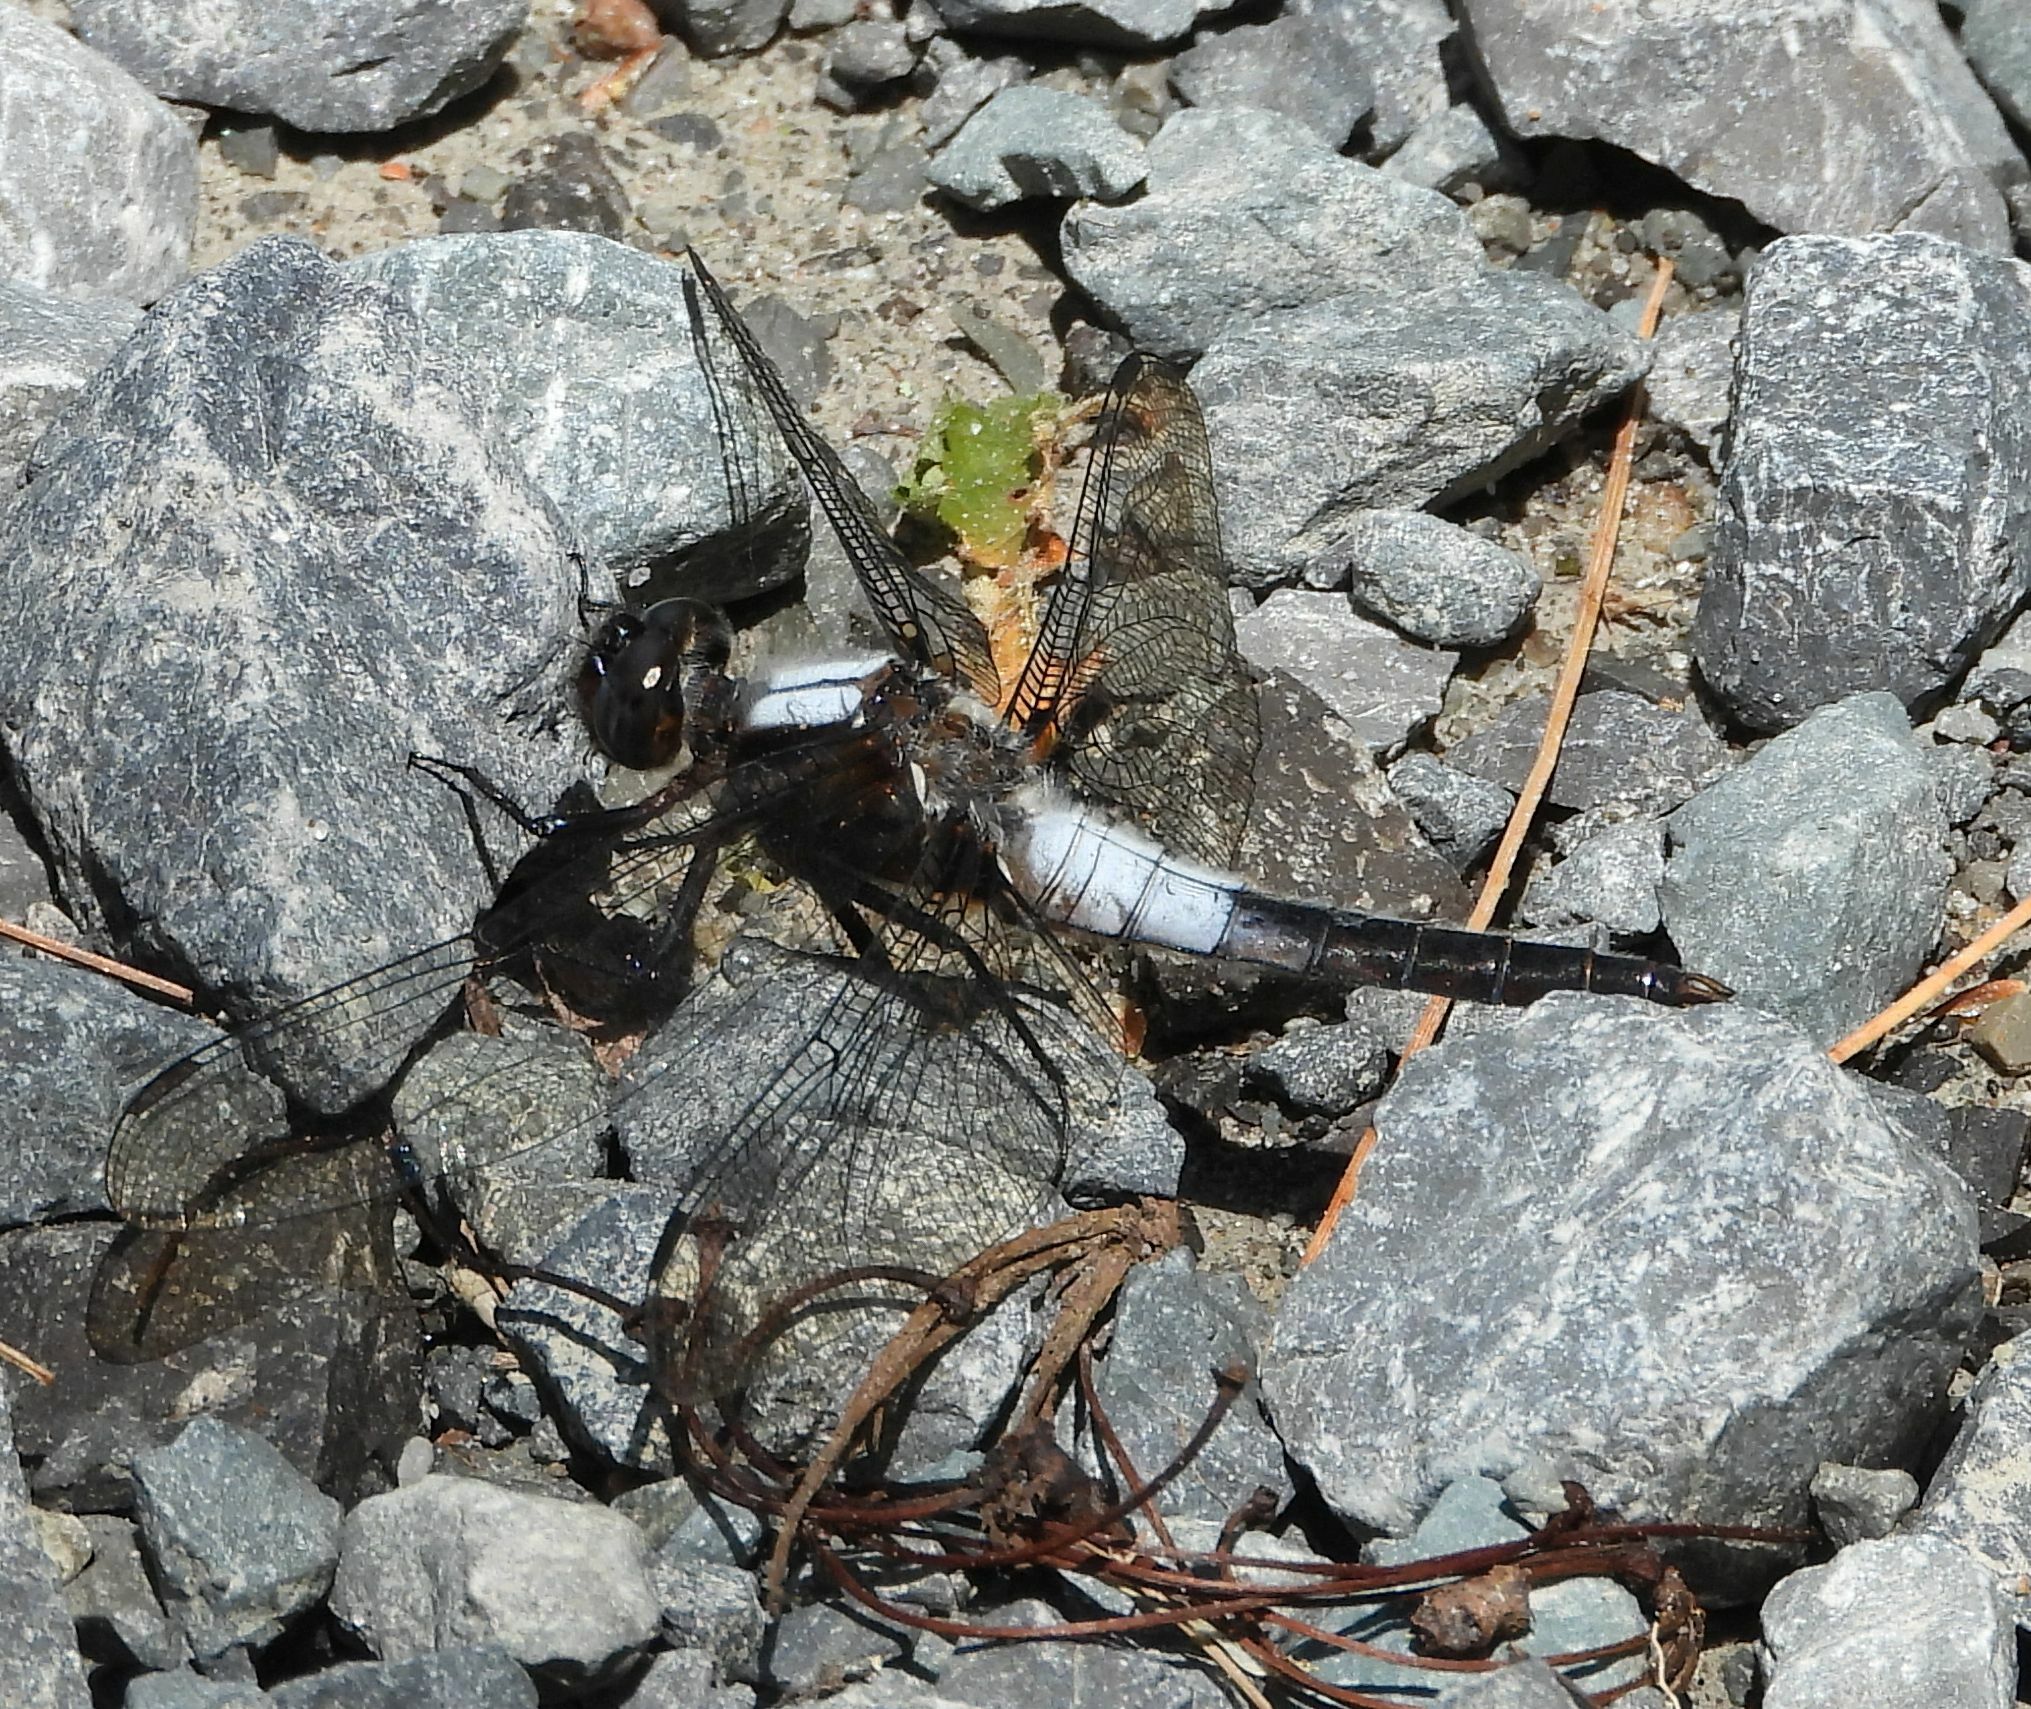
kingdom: Animalia
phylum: Arthropoda
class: Insecta
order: Odonata
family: Libellulidae
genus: Ladona
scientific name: Ladona julia
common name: Chalk-fronted corporal
